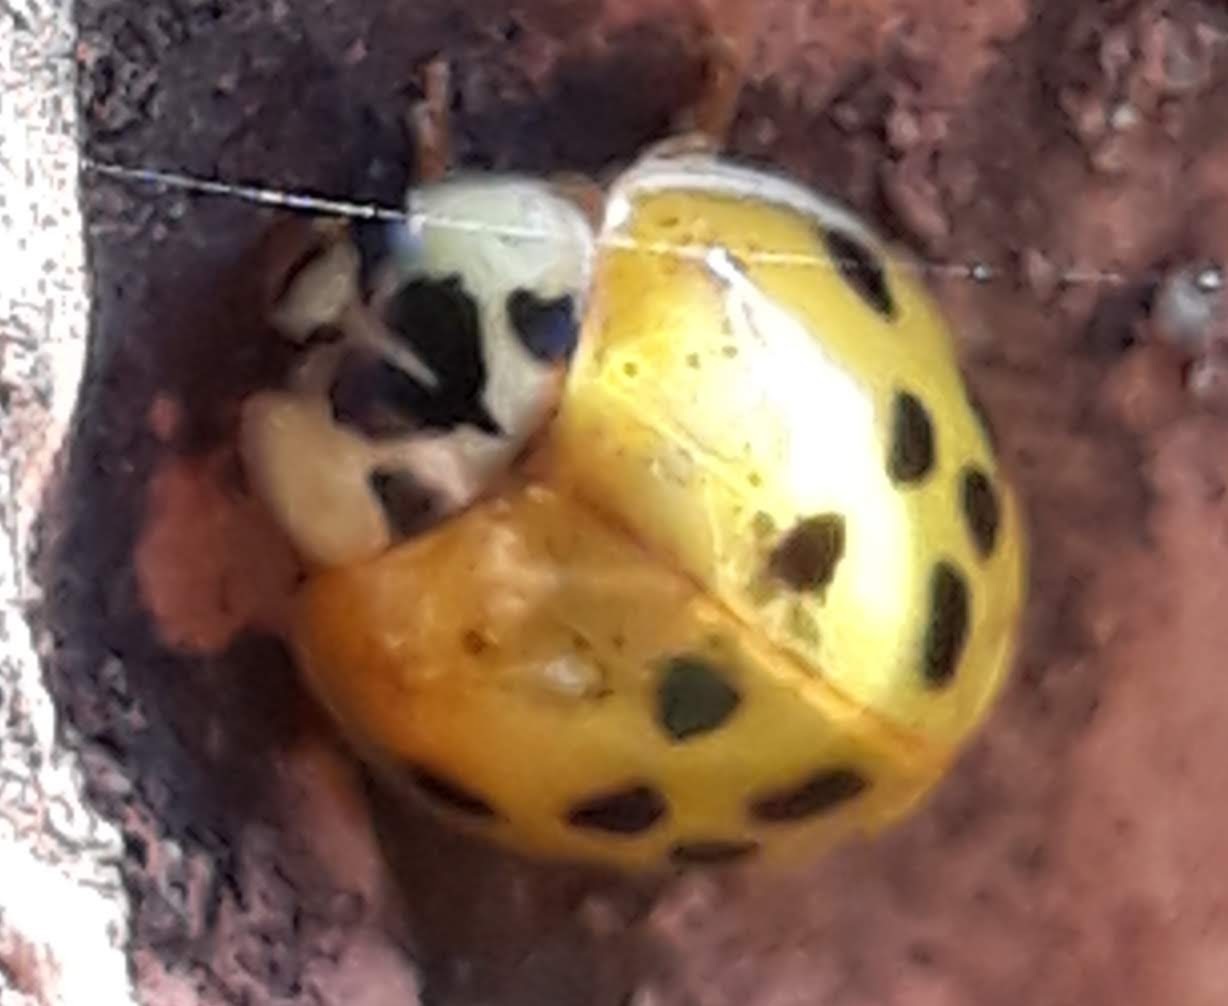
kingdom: Animalia
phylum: Arthropoda
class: Insecta
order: Coleoptera
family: Coccinellidae
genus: Harmonia
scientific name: Harmonia axyridis
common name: Harlequin ladybird
